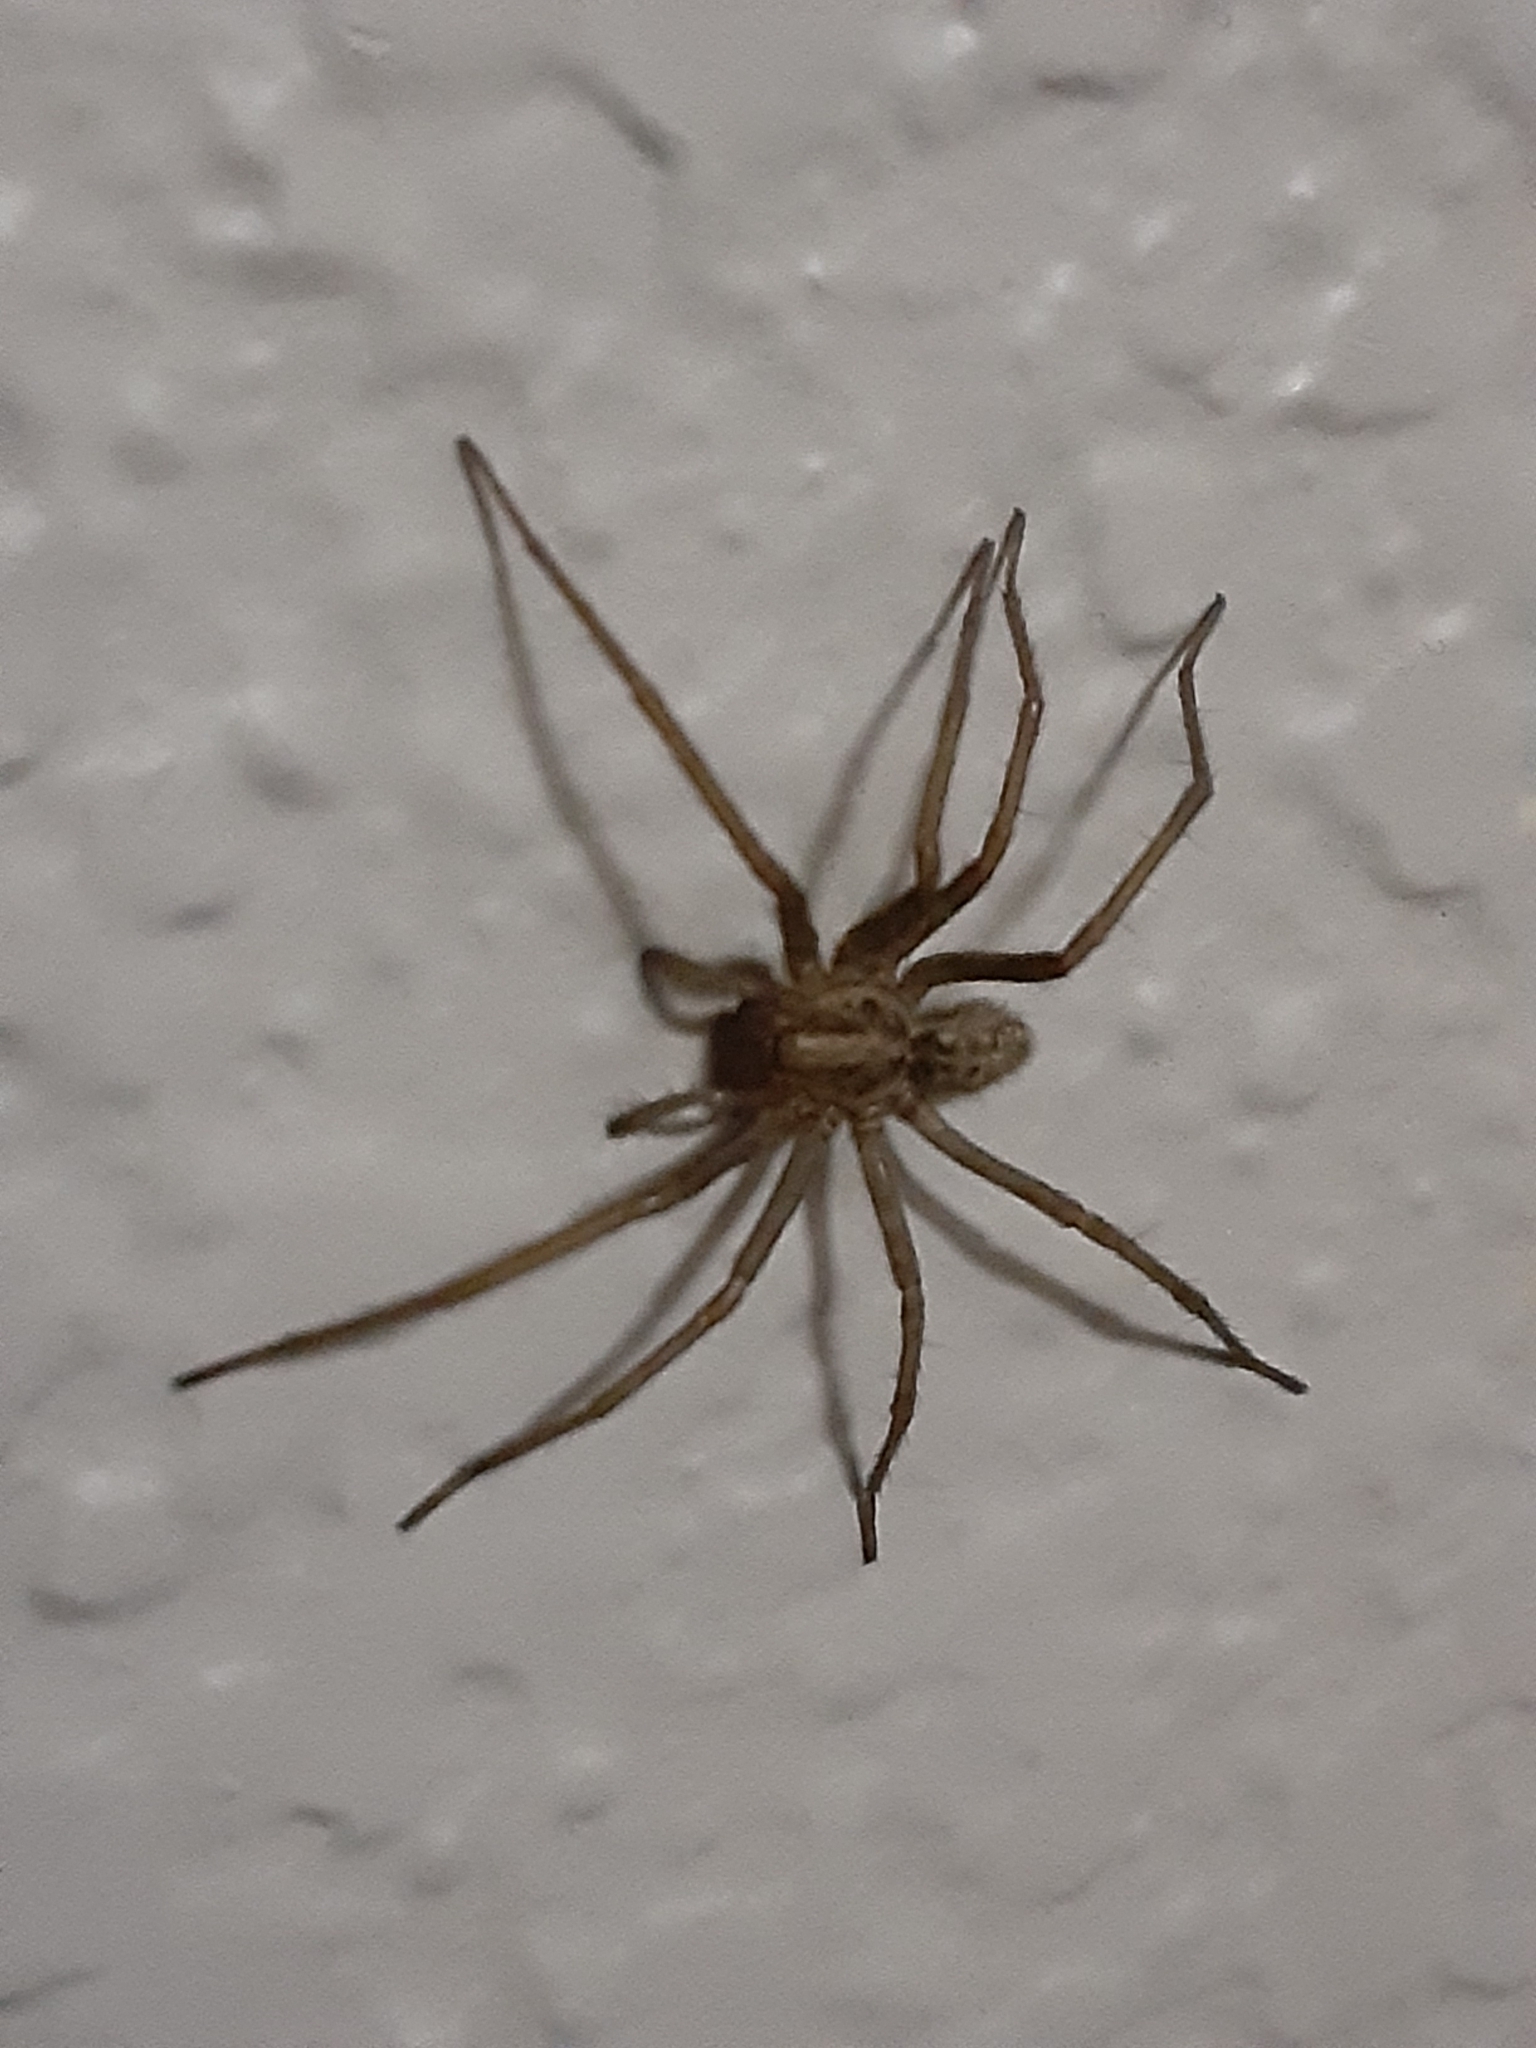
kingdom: Animalia
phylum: Arthropoda
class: Arachnida
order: Araneae
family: Agelenidae
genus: Eratigena
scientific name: Eratigena duellica
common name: Giant house spider
